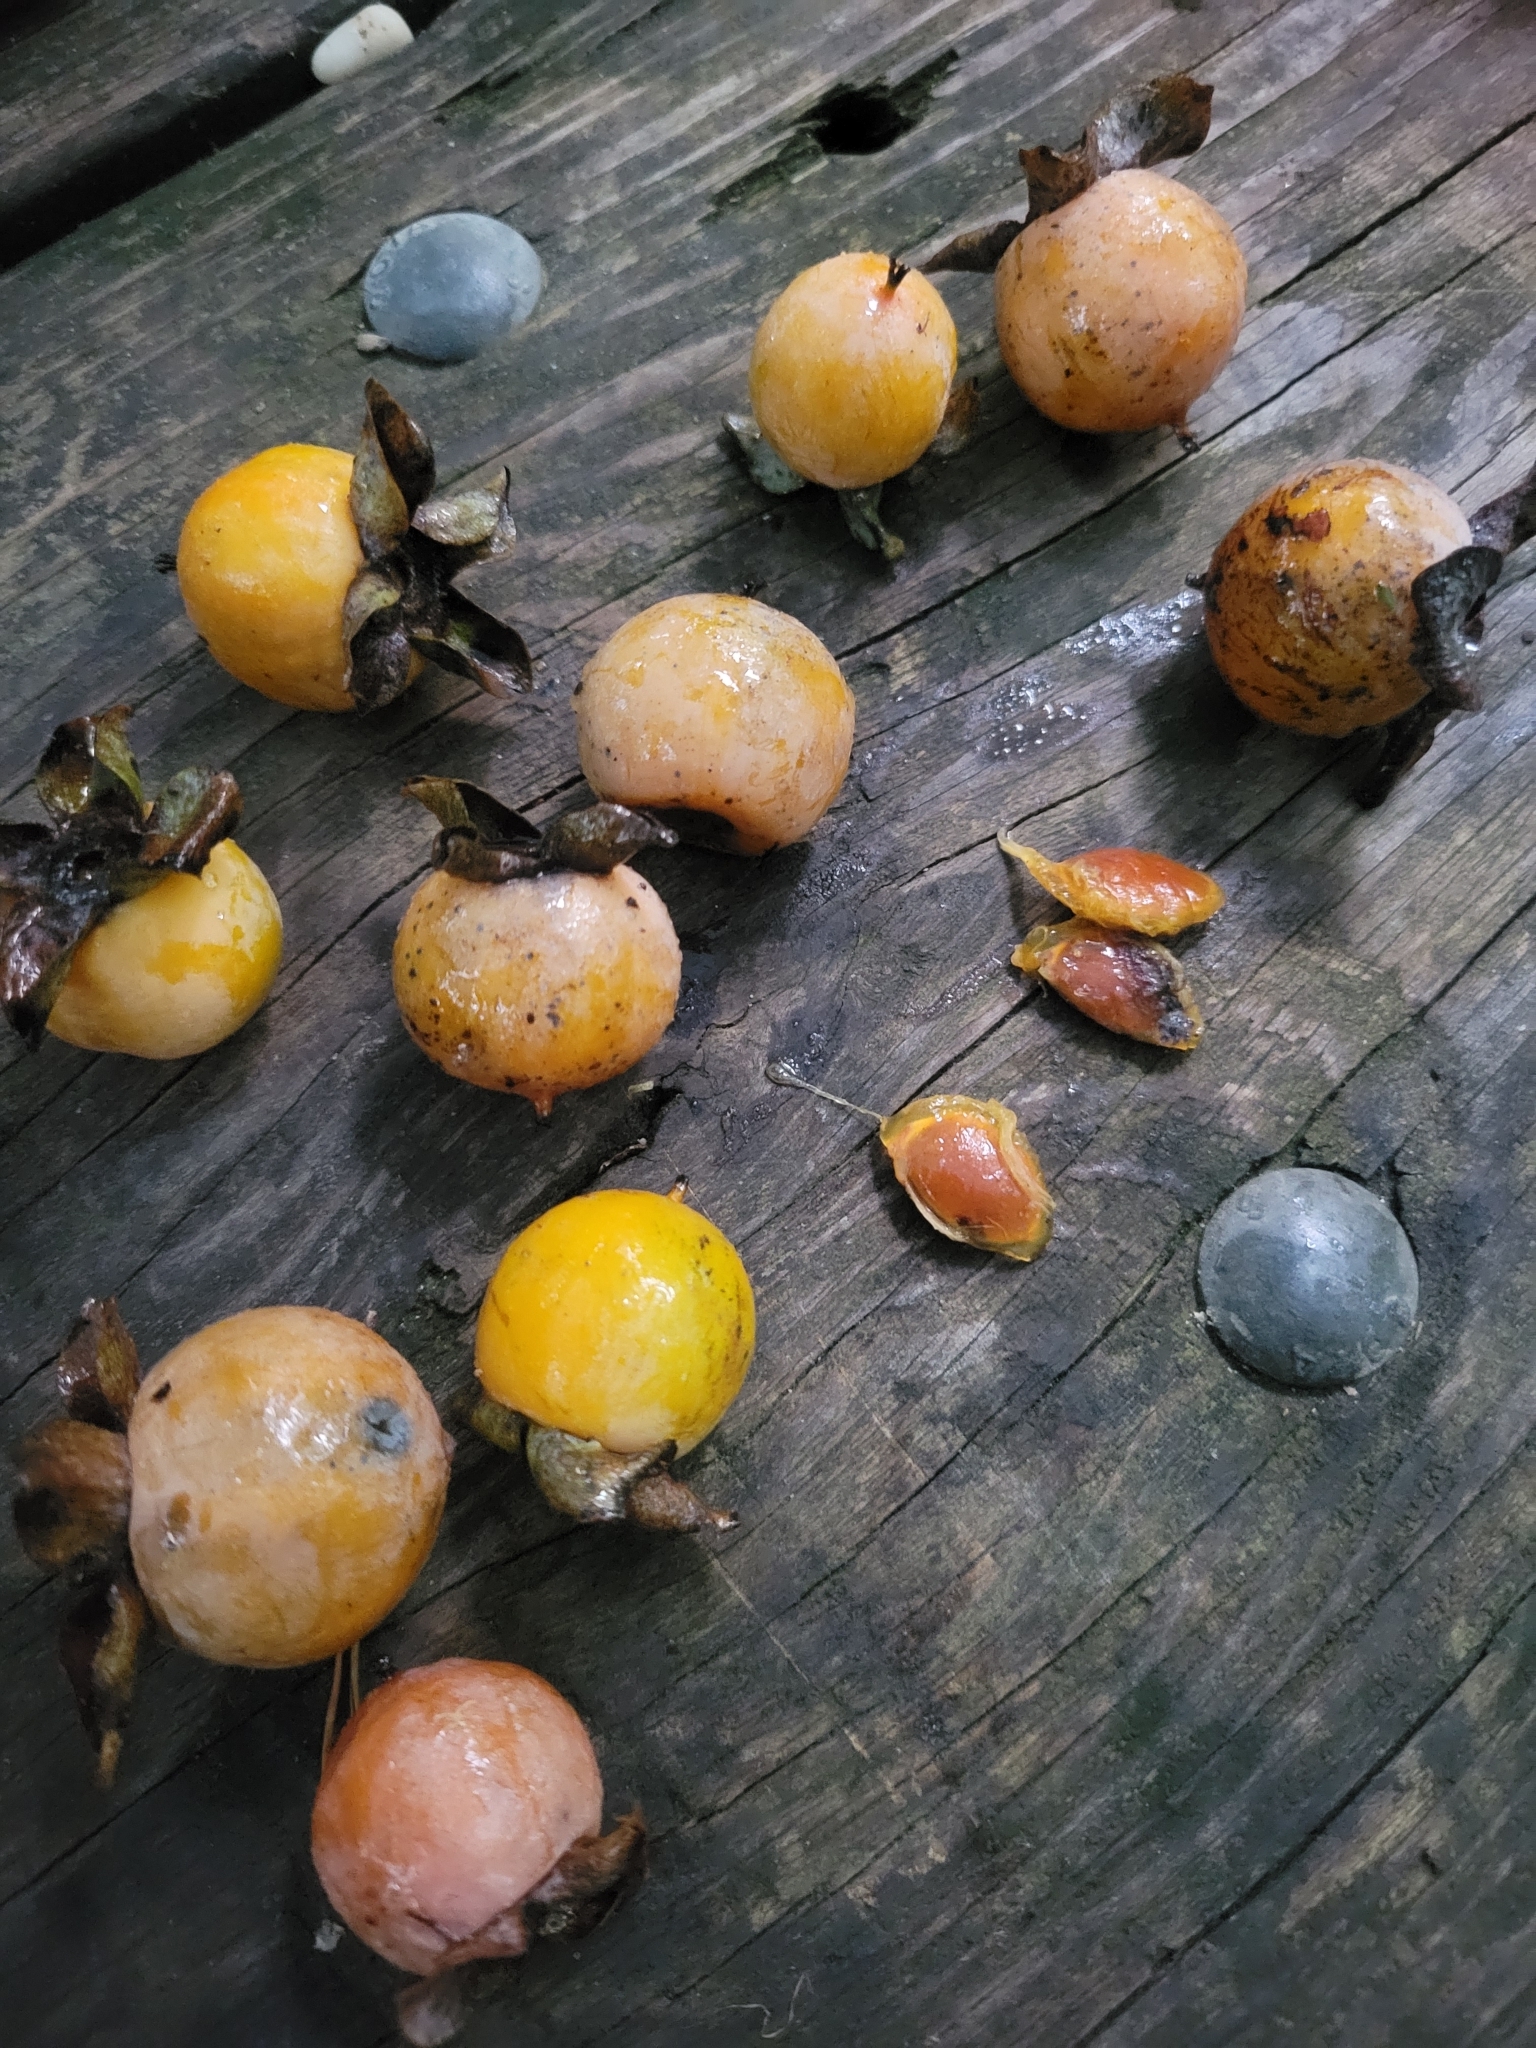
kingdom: Plantae
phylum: Tracheophyta
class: Magnoliopsida
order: Ericales
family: Ebenaceae
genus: Diospyros
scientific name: Diospyros virginiana
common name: Persimmon
